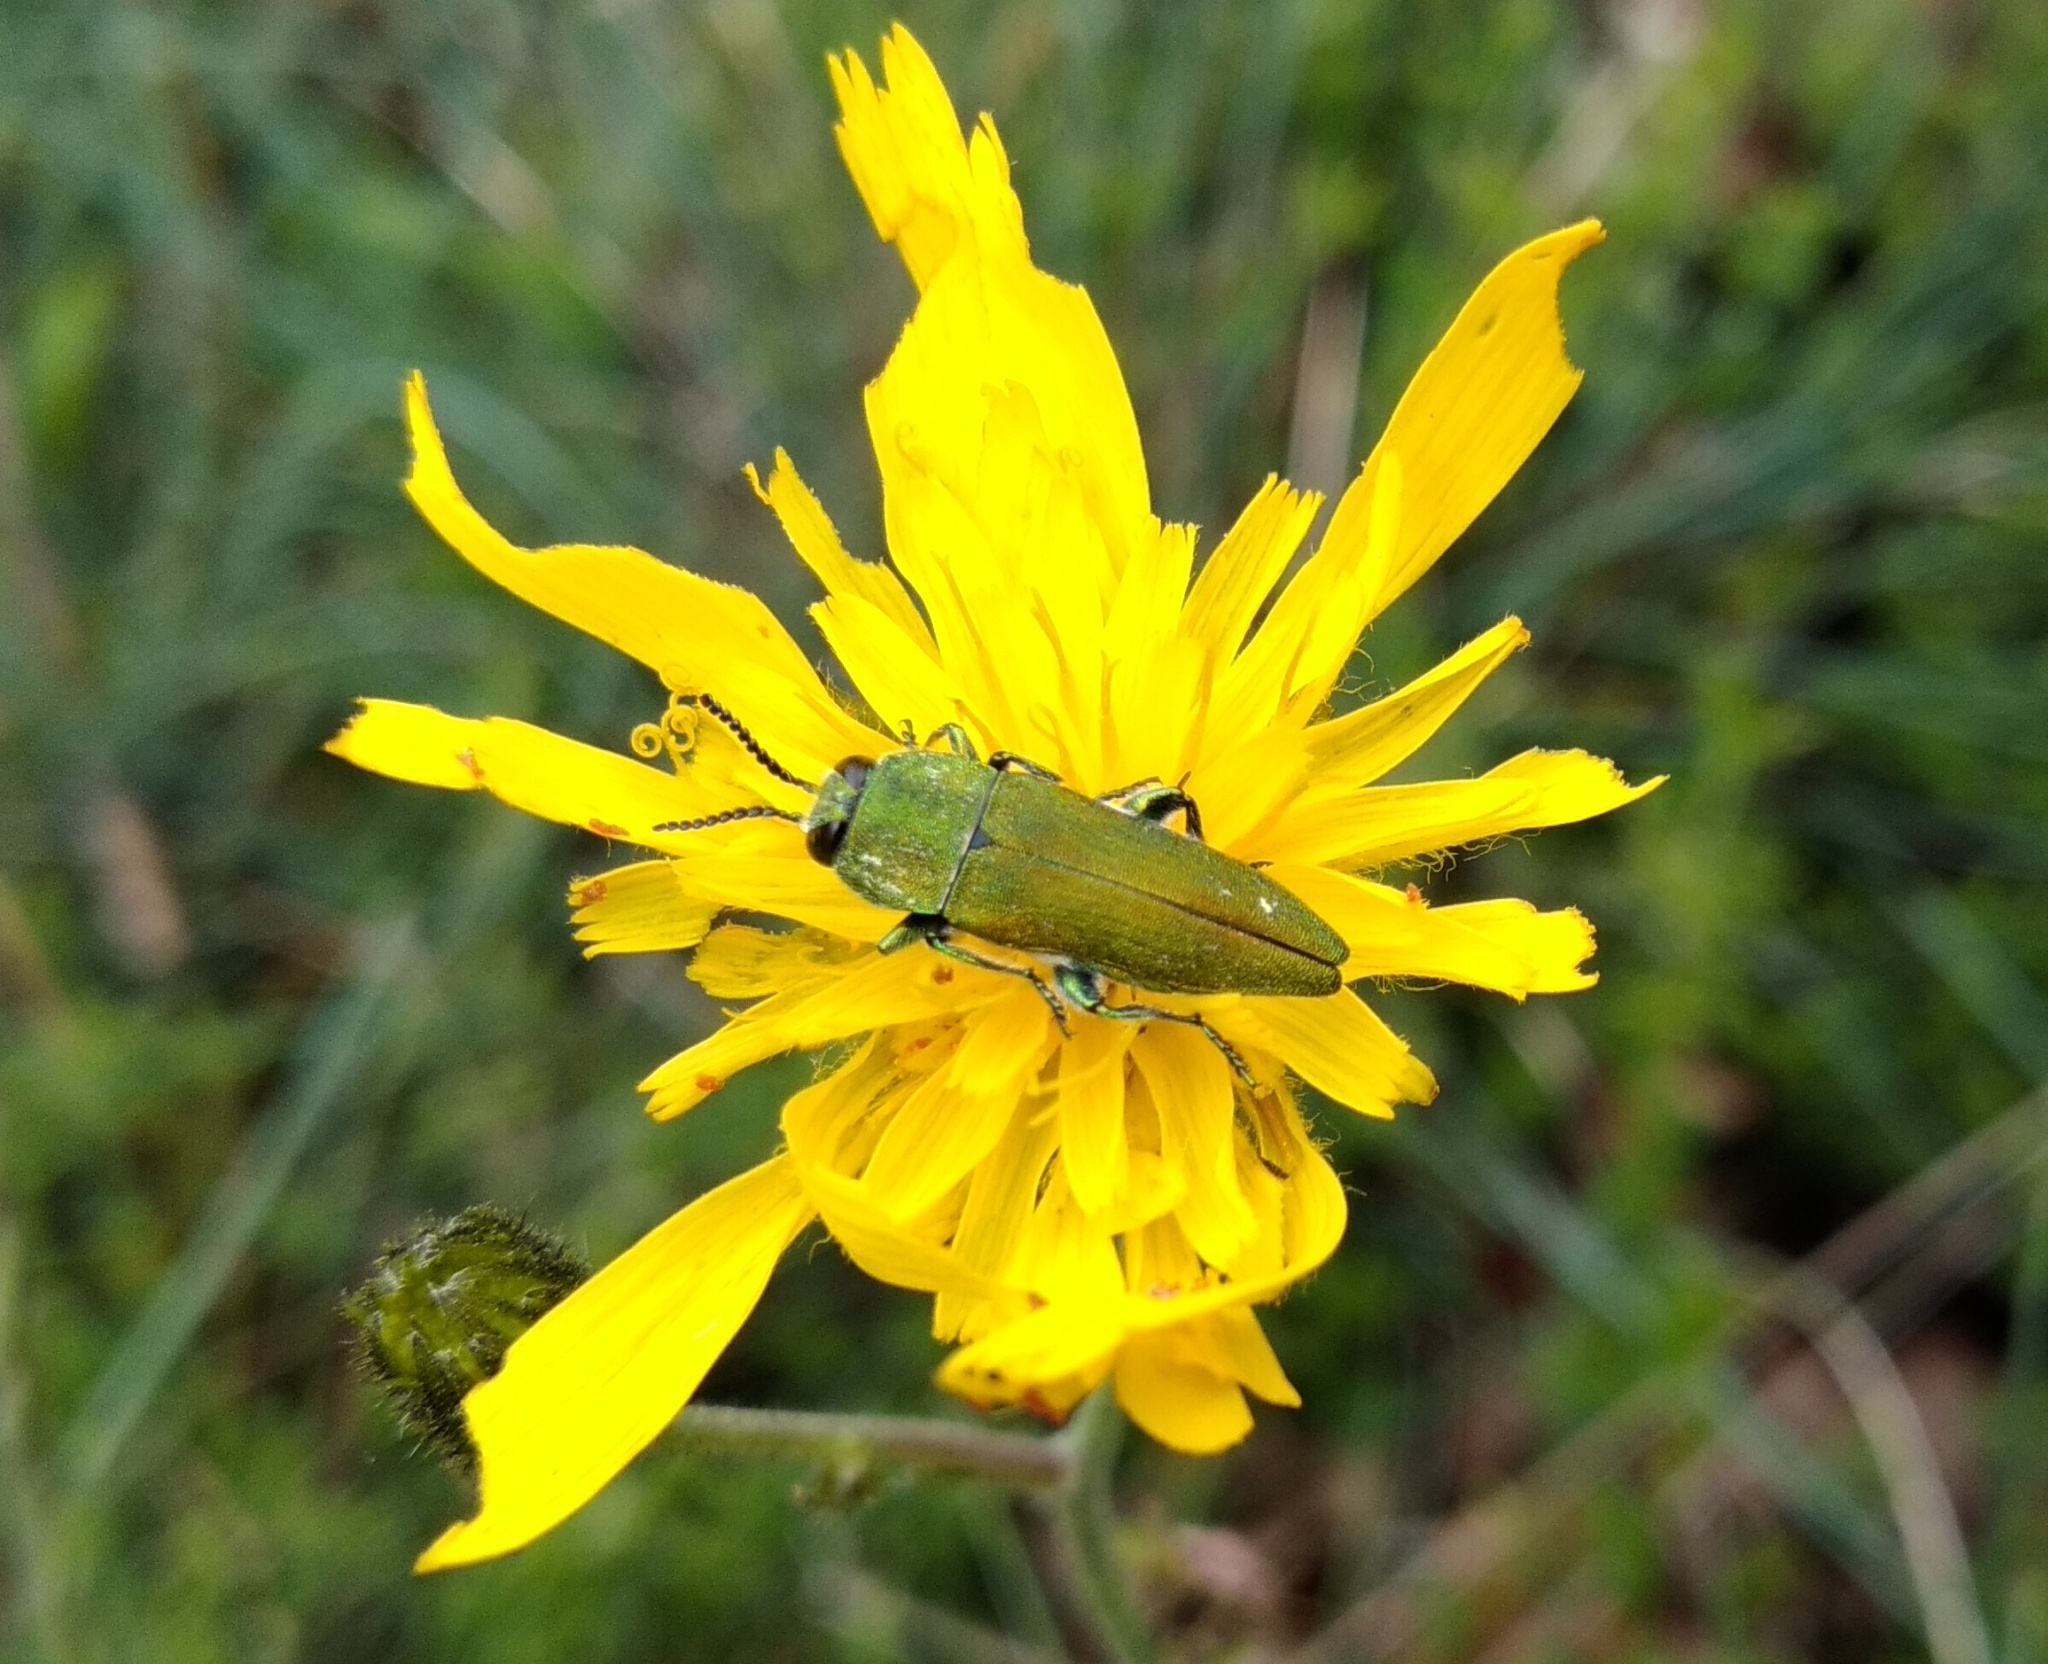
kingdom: Animalia
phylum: Arthropoda
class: Insecta
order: Coleoptera
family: Buprestidae
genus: Anthaxia
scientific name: Anthaxia hungarica
